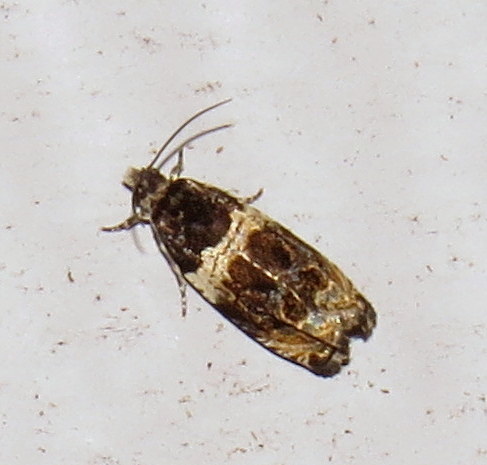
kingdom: Animalia
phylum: Arthropoda
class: Insecta
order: Lepidoptera
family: Tortricidae
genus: Olethreutes
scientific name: Olethreutes fasciatana
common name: Banded olethreutes moth
